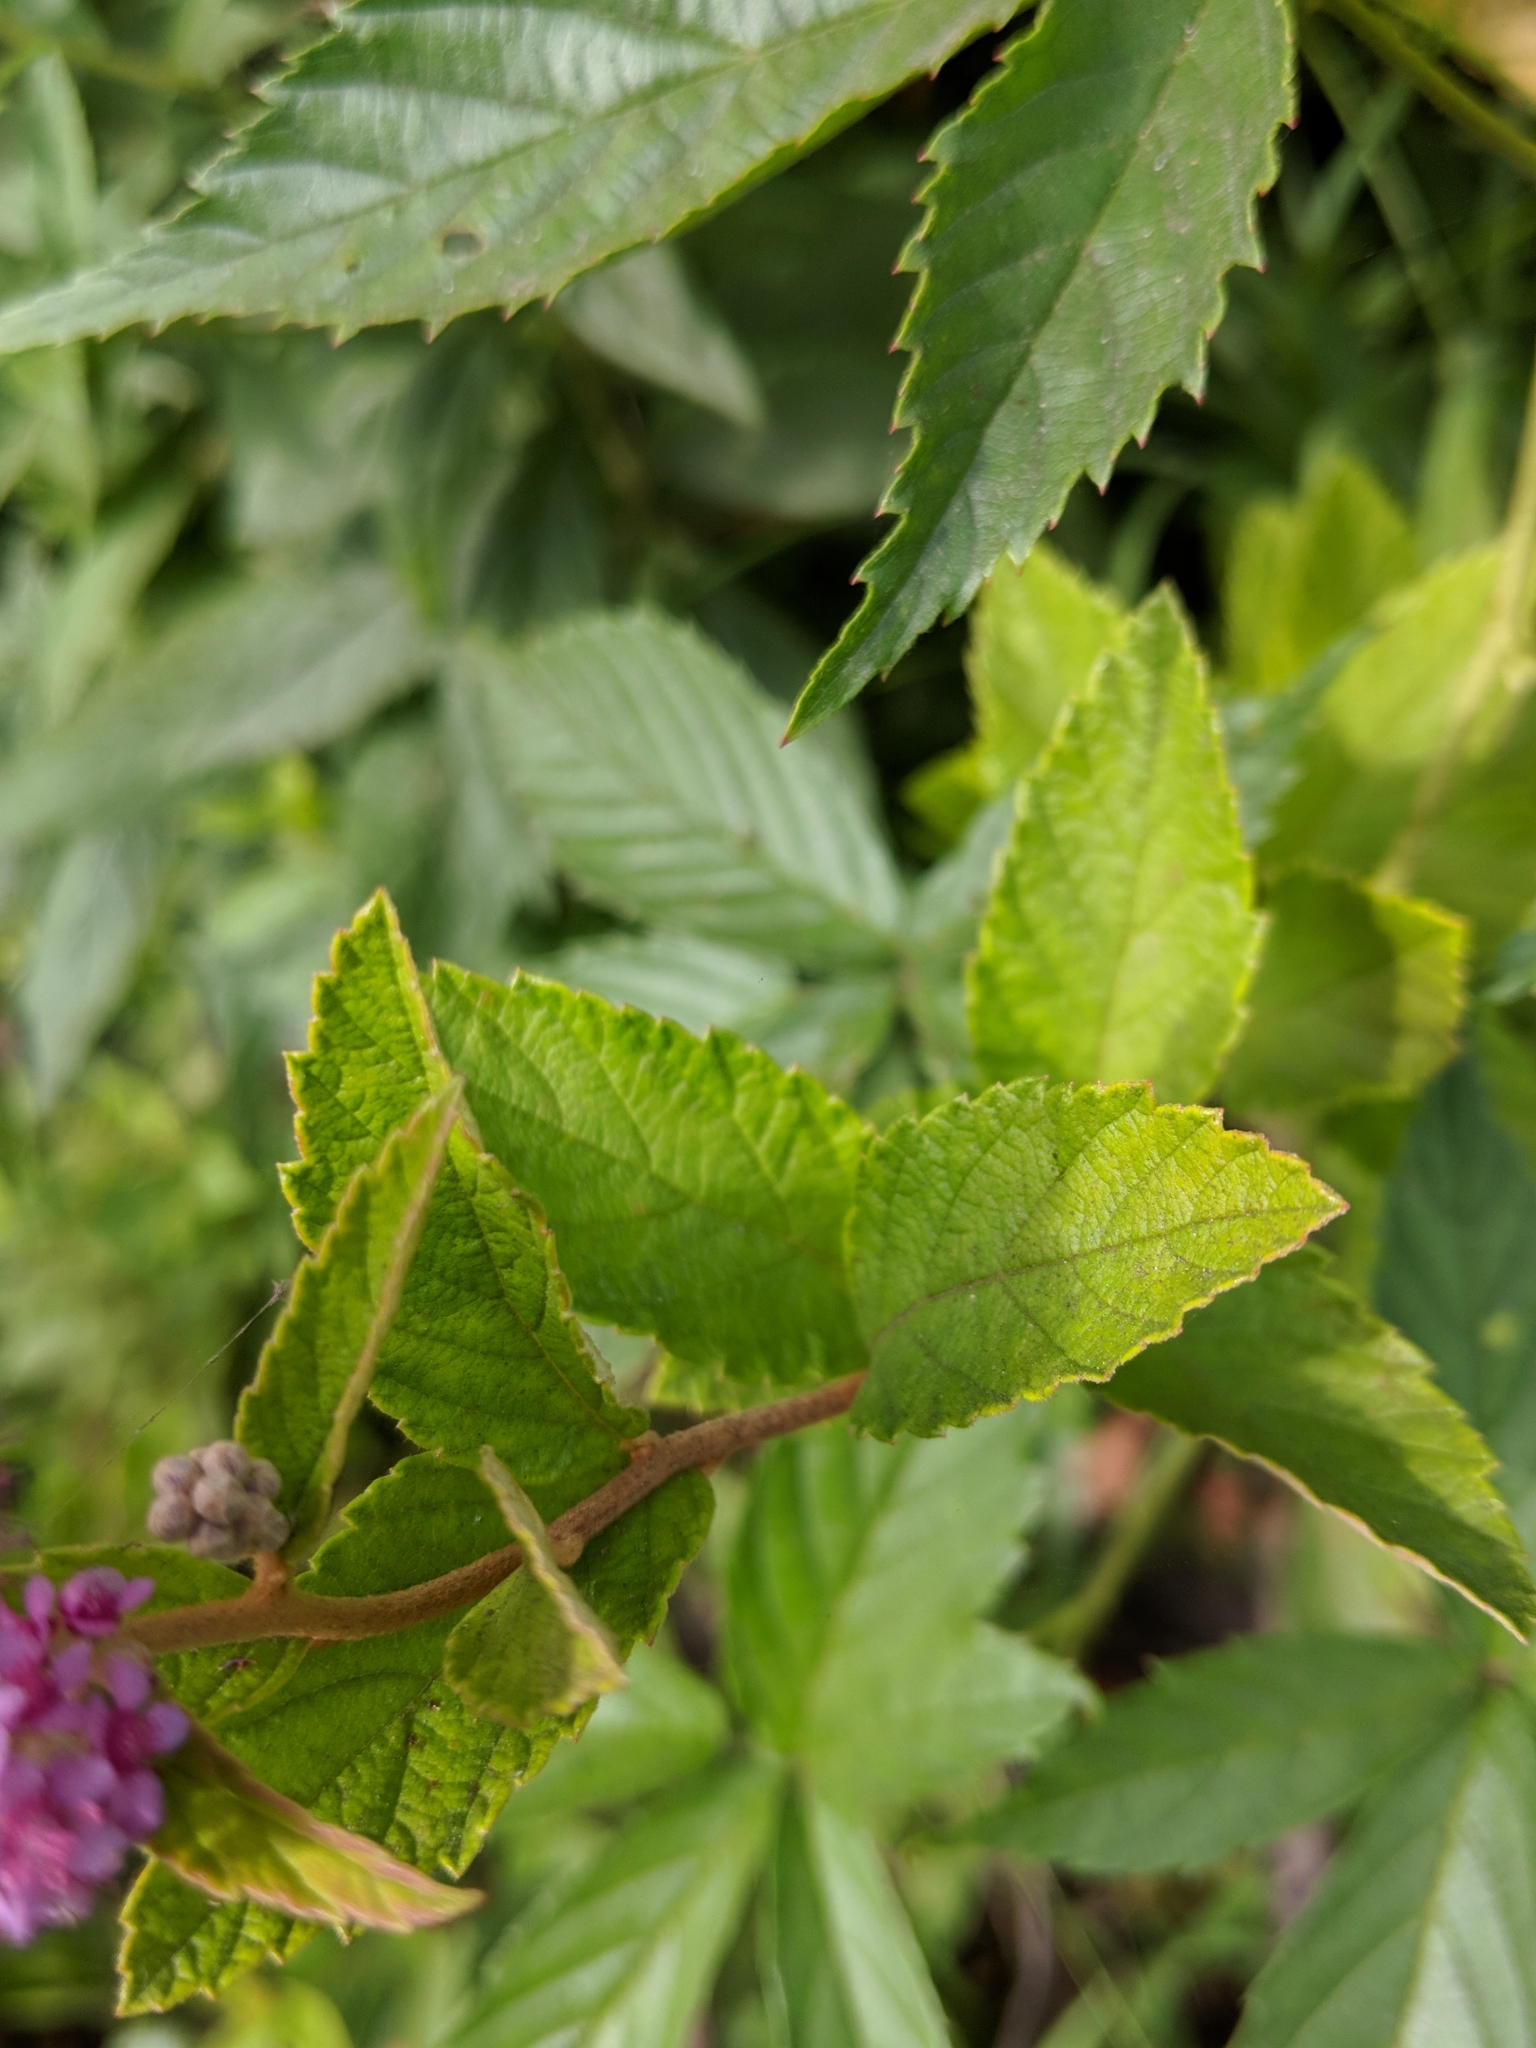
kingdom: Plantae
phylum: Tracheophyta
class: Magnoliopsida
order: Rosales
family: Rosaceae
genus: Spiraea
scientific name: Spiraea tomentosa
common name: Hardhack
